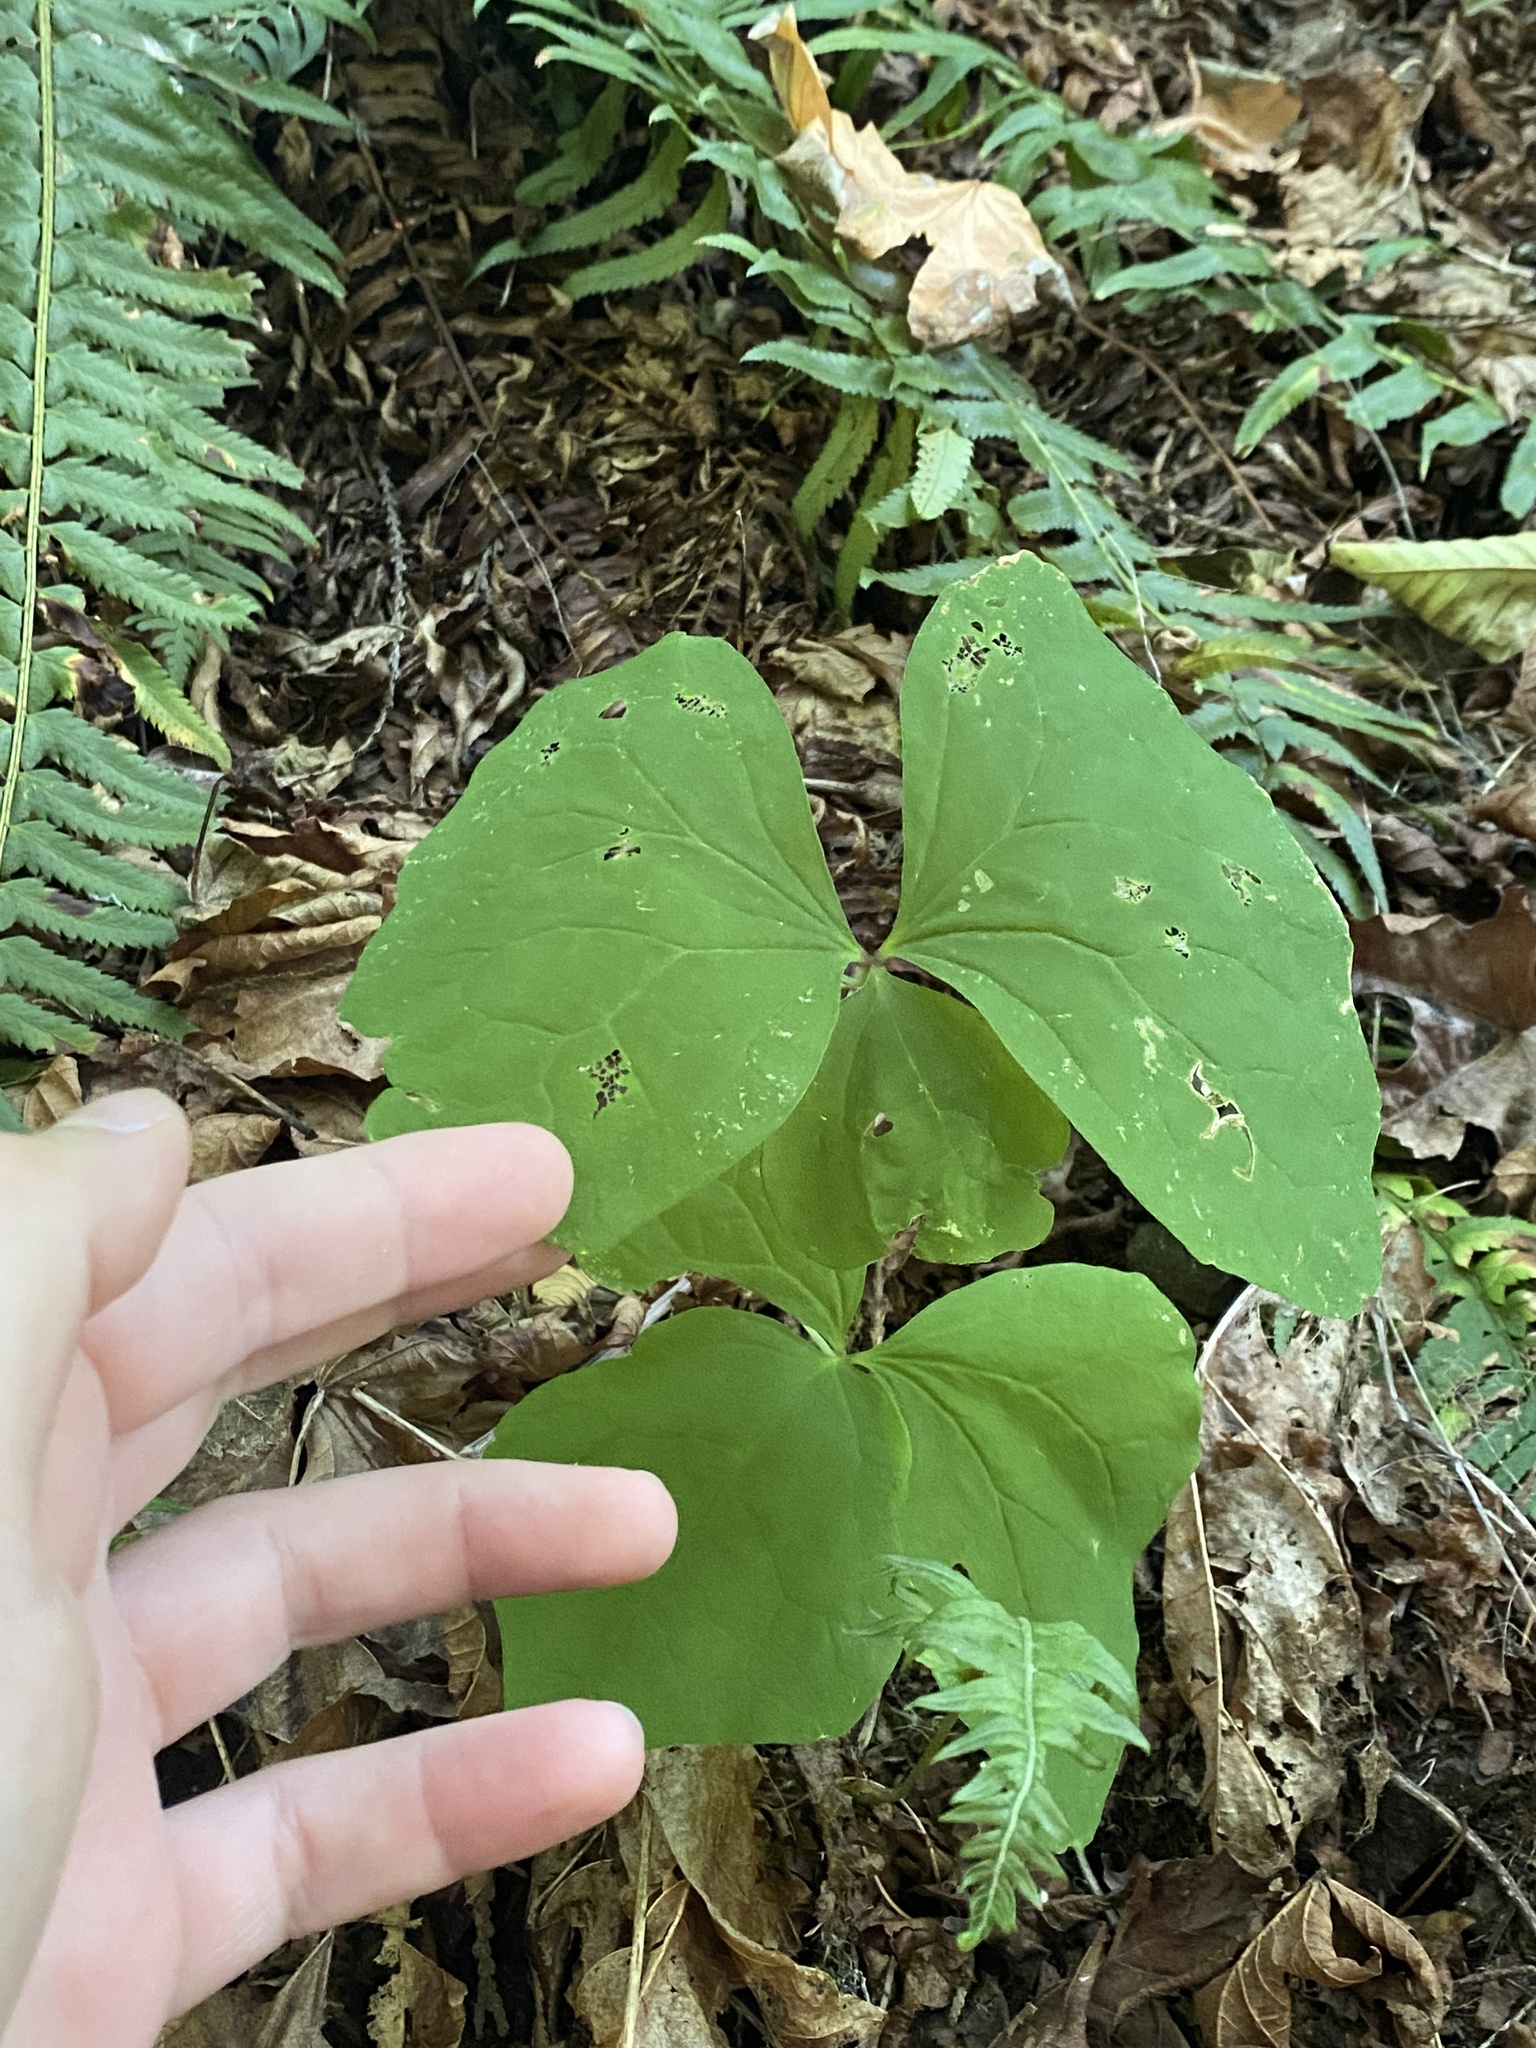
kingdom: Plantae
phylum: Tracheophyta
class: Magnoliopsida
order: Ranunculales
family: Berberidaceae
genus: Achlys
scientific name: Achlys triphylla
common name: Vanilla-leaf
